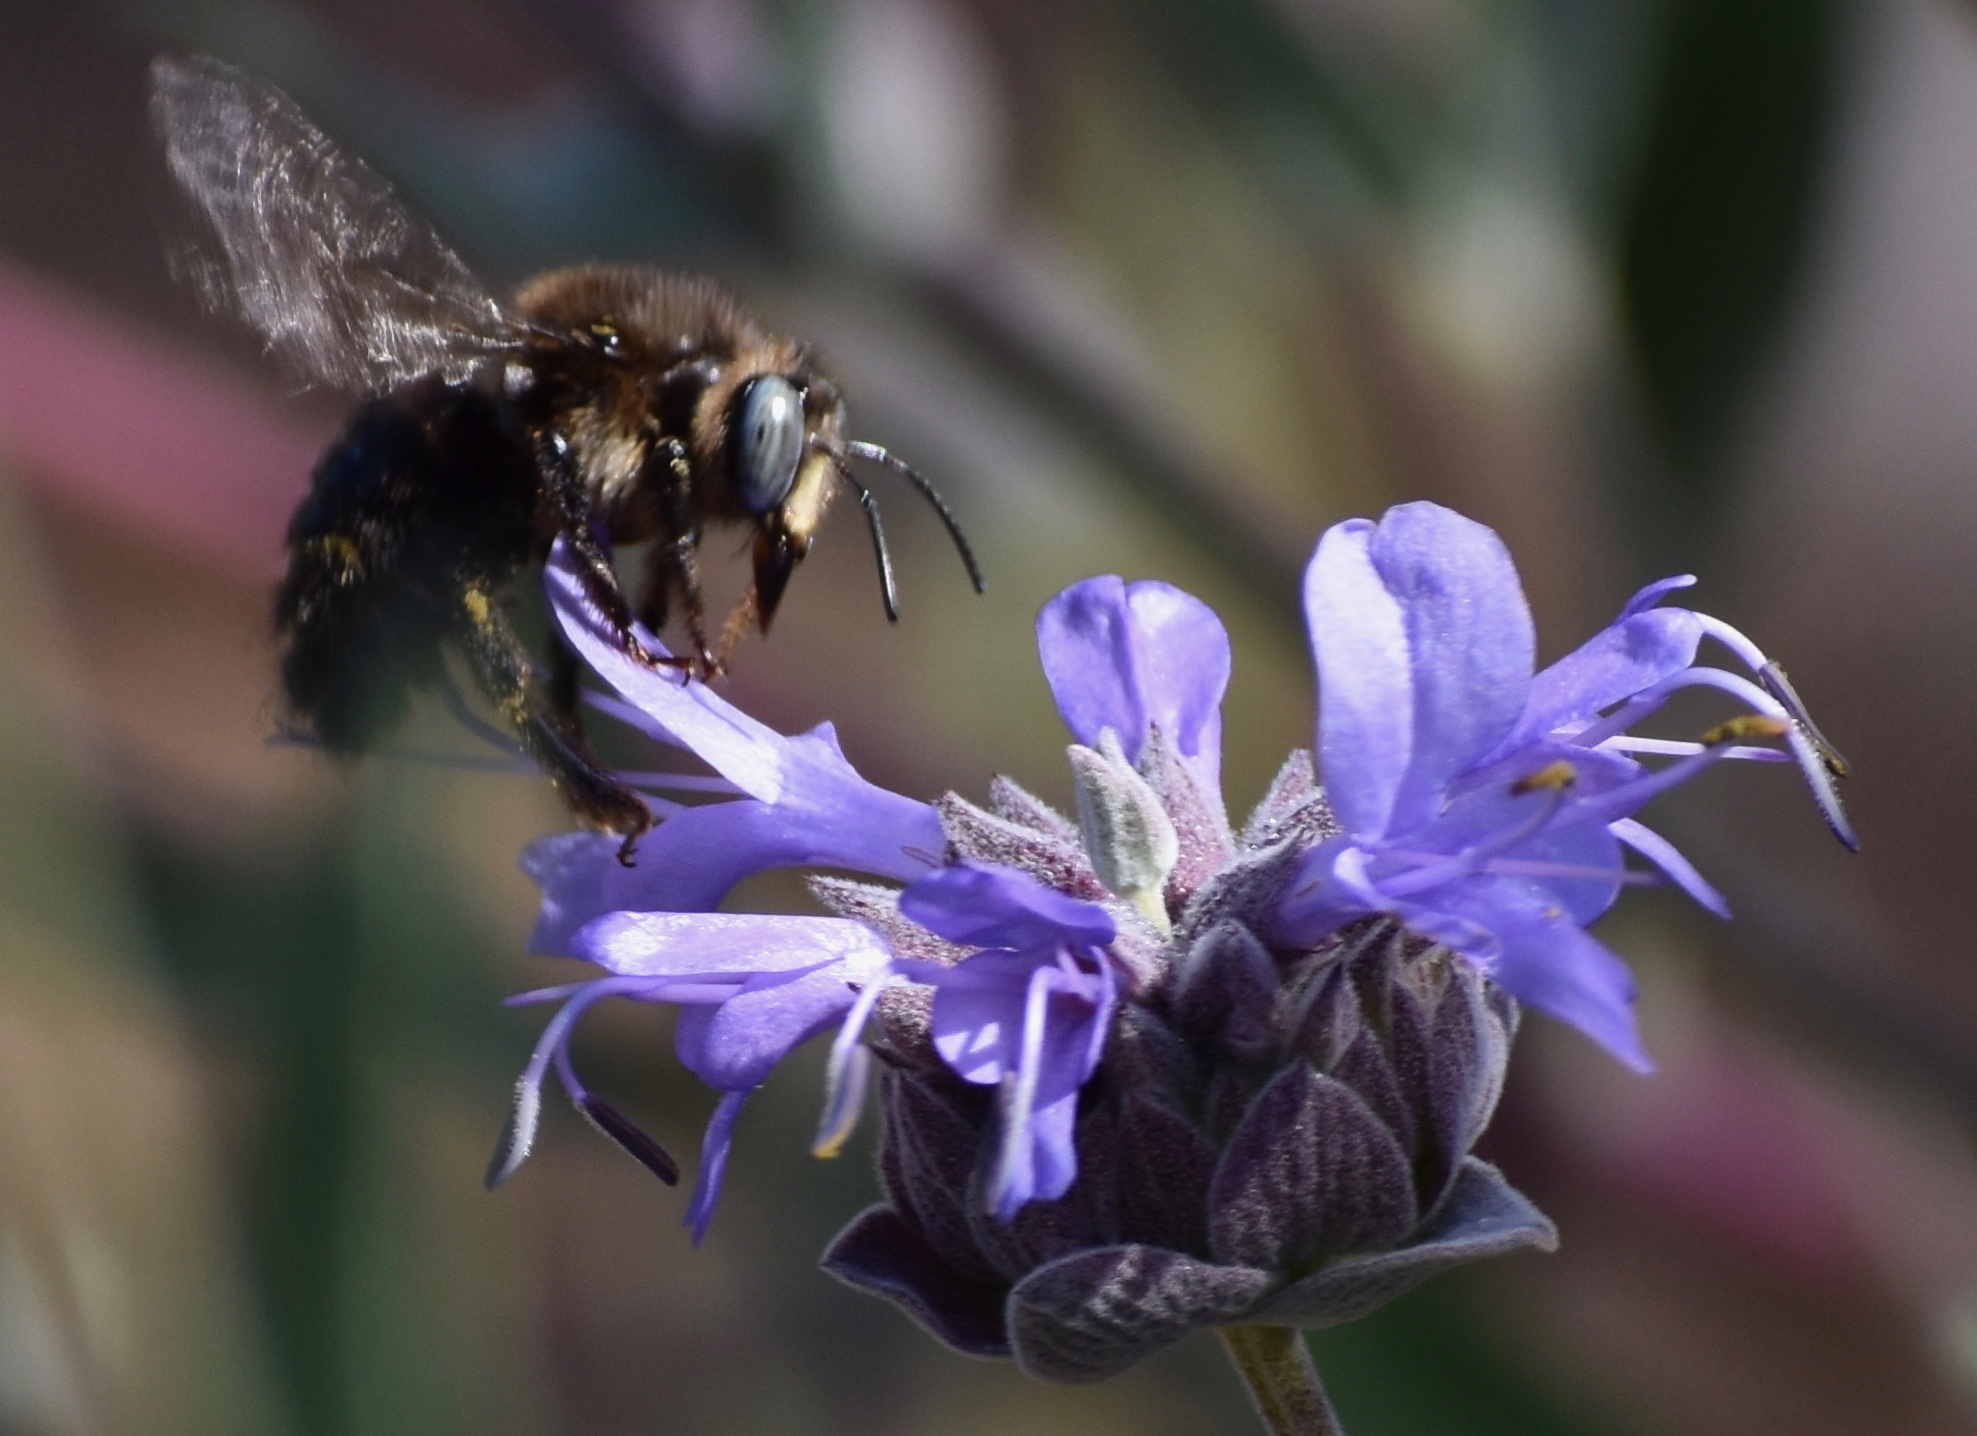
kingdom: Animalia
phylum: Arthropoda
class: Insecta
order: Hymenoptera
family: Apidae
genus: Xylocopa
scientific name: Xylocopa tabaniformis
